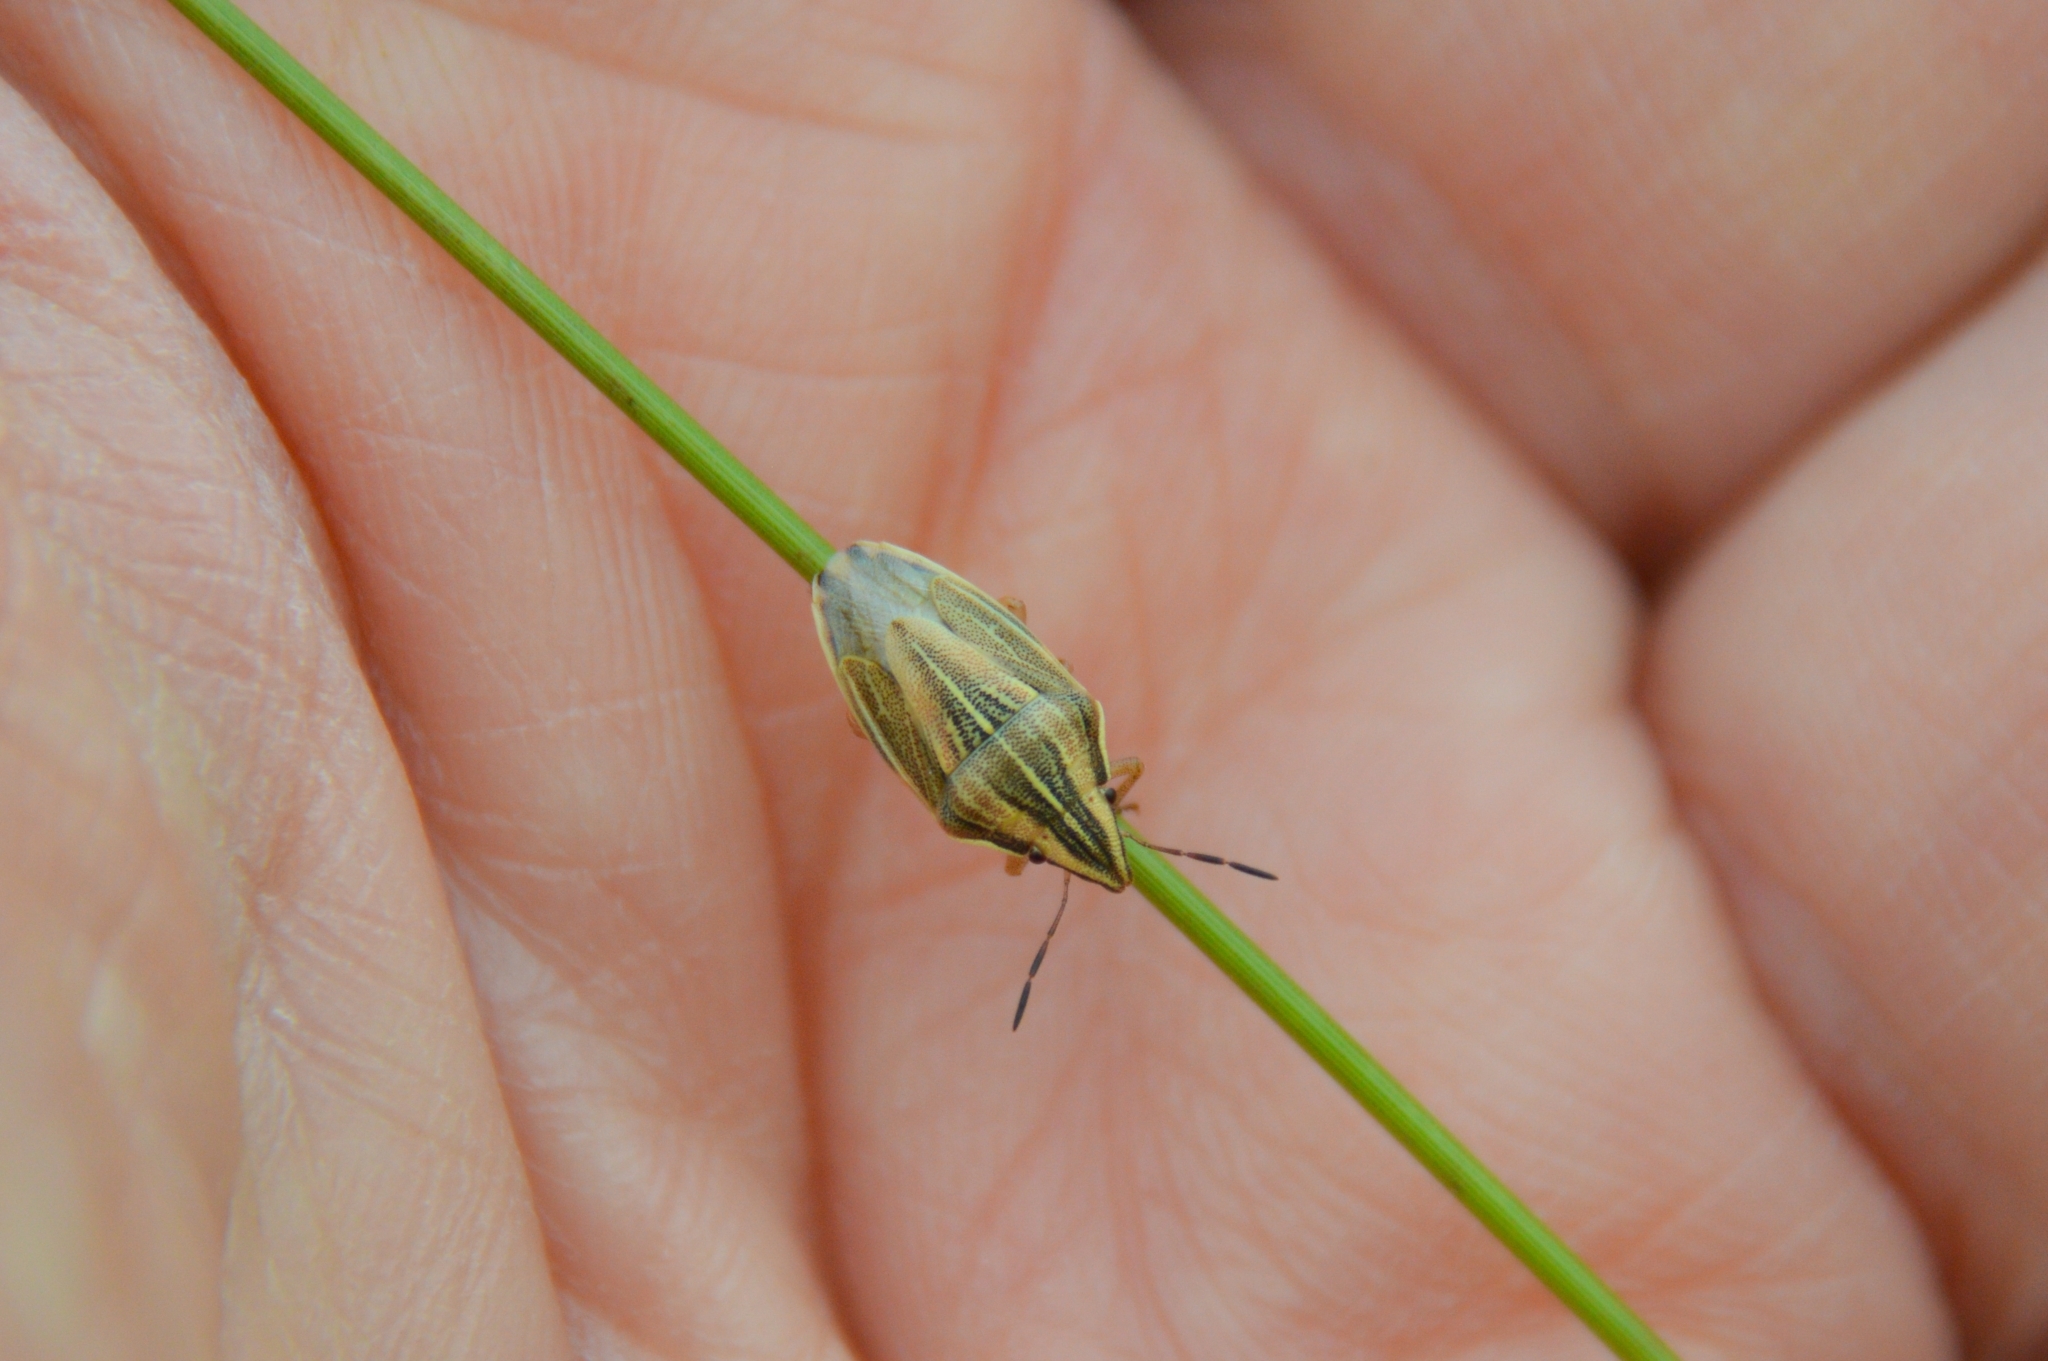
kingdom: Animalia
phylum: Arthropoda
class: Insecta
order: Hemiptera
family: Pentatomidae
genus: Aelia
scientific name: Aelia acuminata
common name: Bishop's mitre
